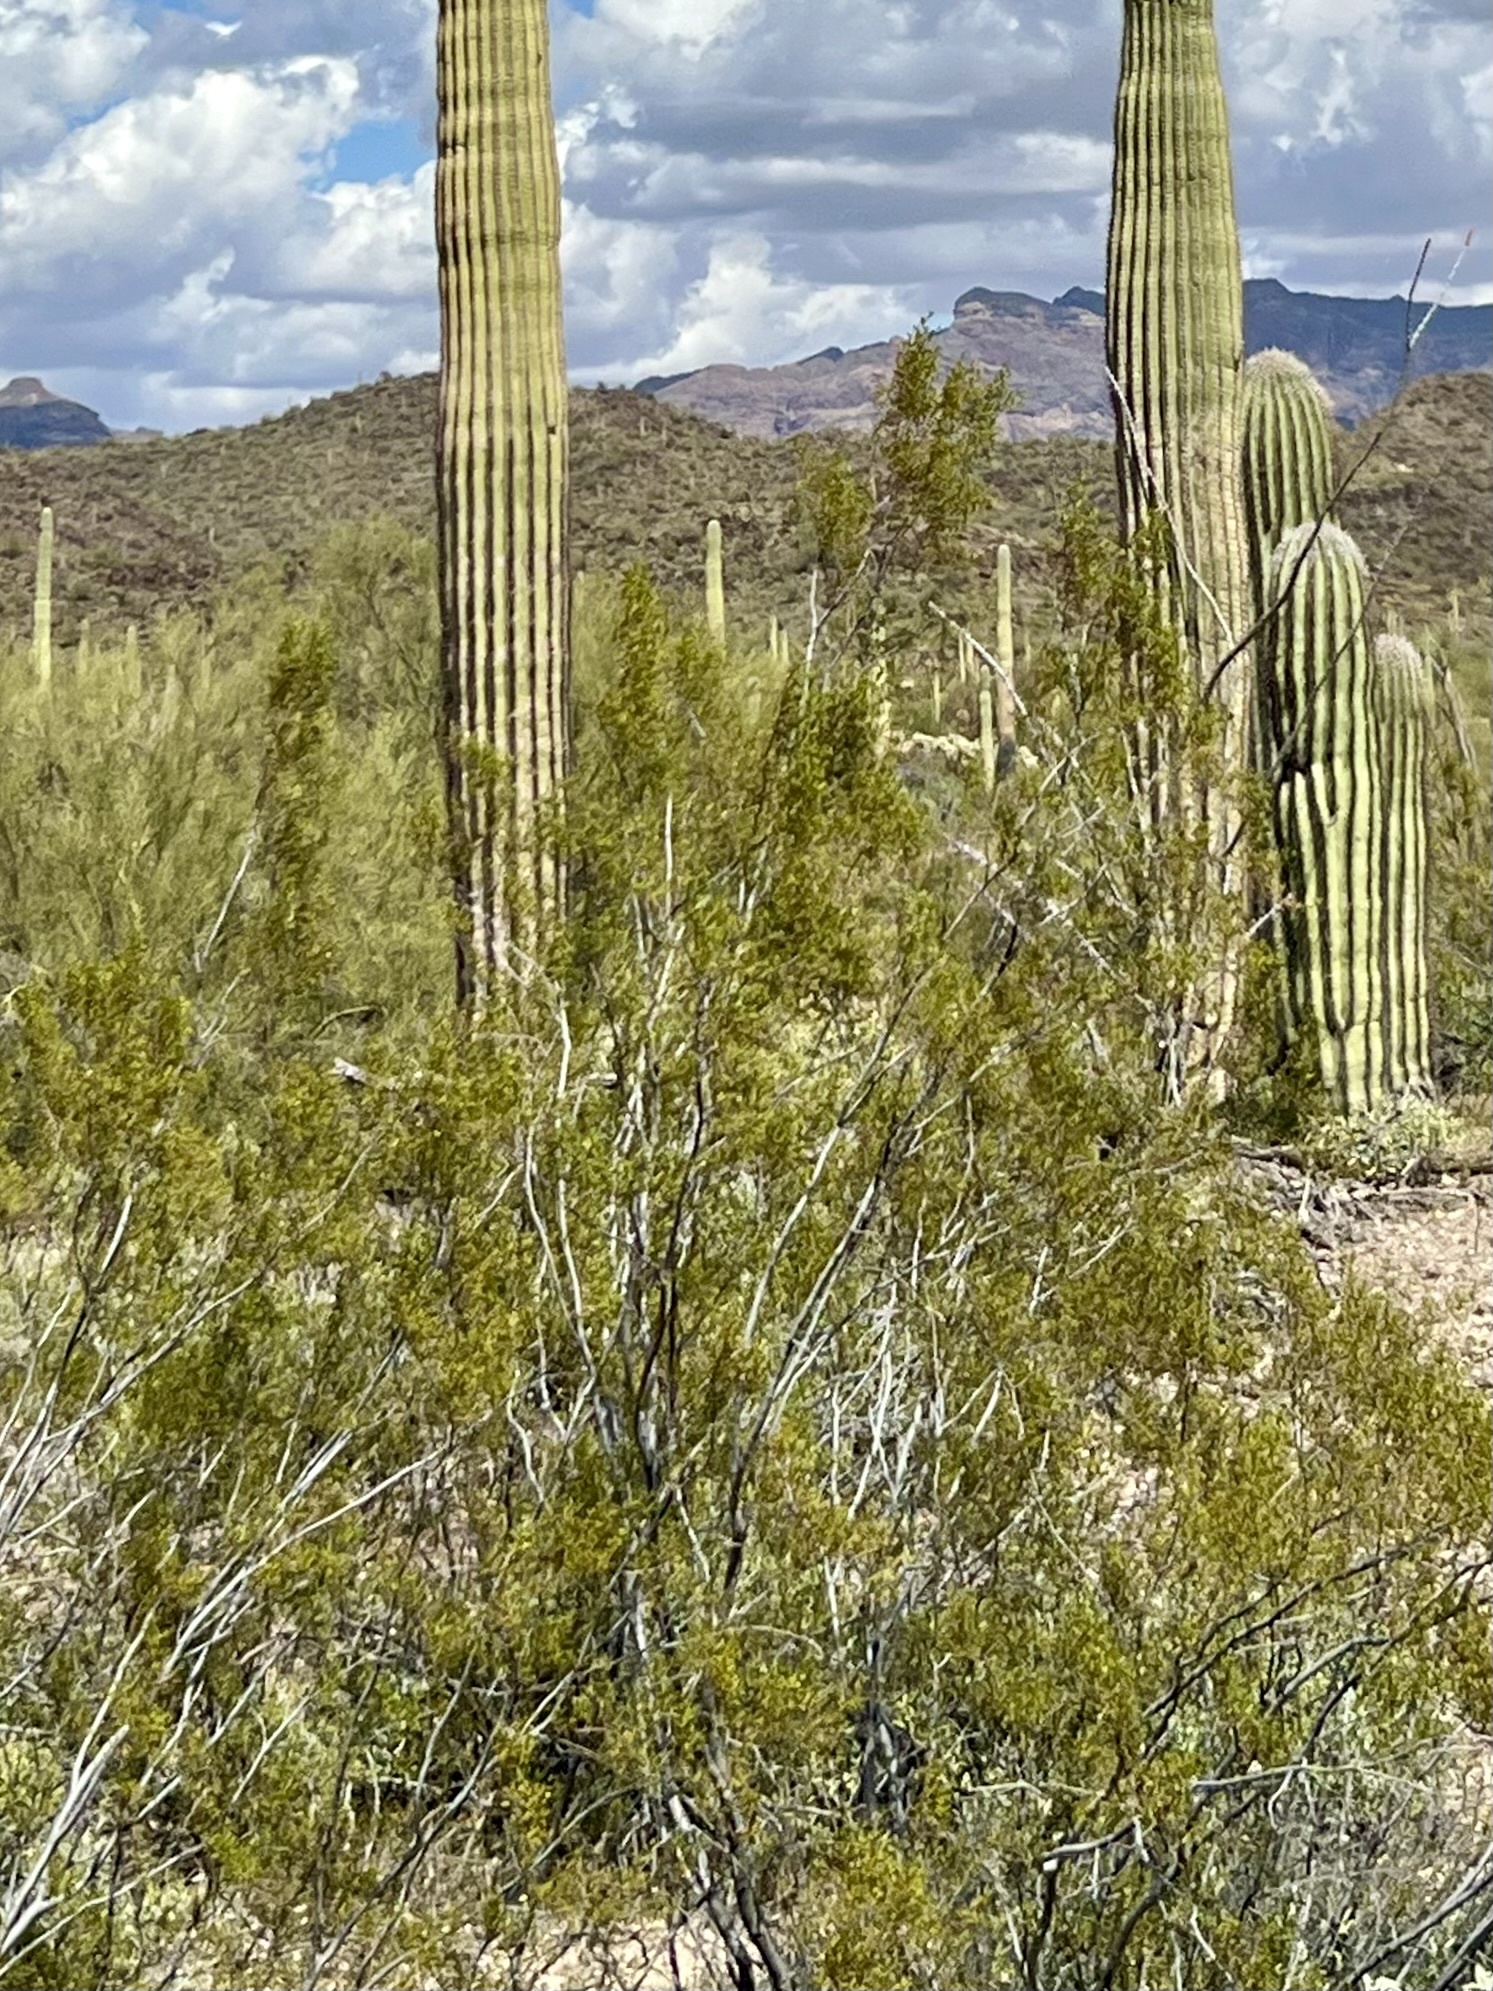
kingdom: Plantae
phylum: Tracheophyta
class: Magnoliopsida
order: Zygophyllales
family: Zygophyllaceae
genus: Larrea
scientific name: Larrea tridentata
